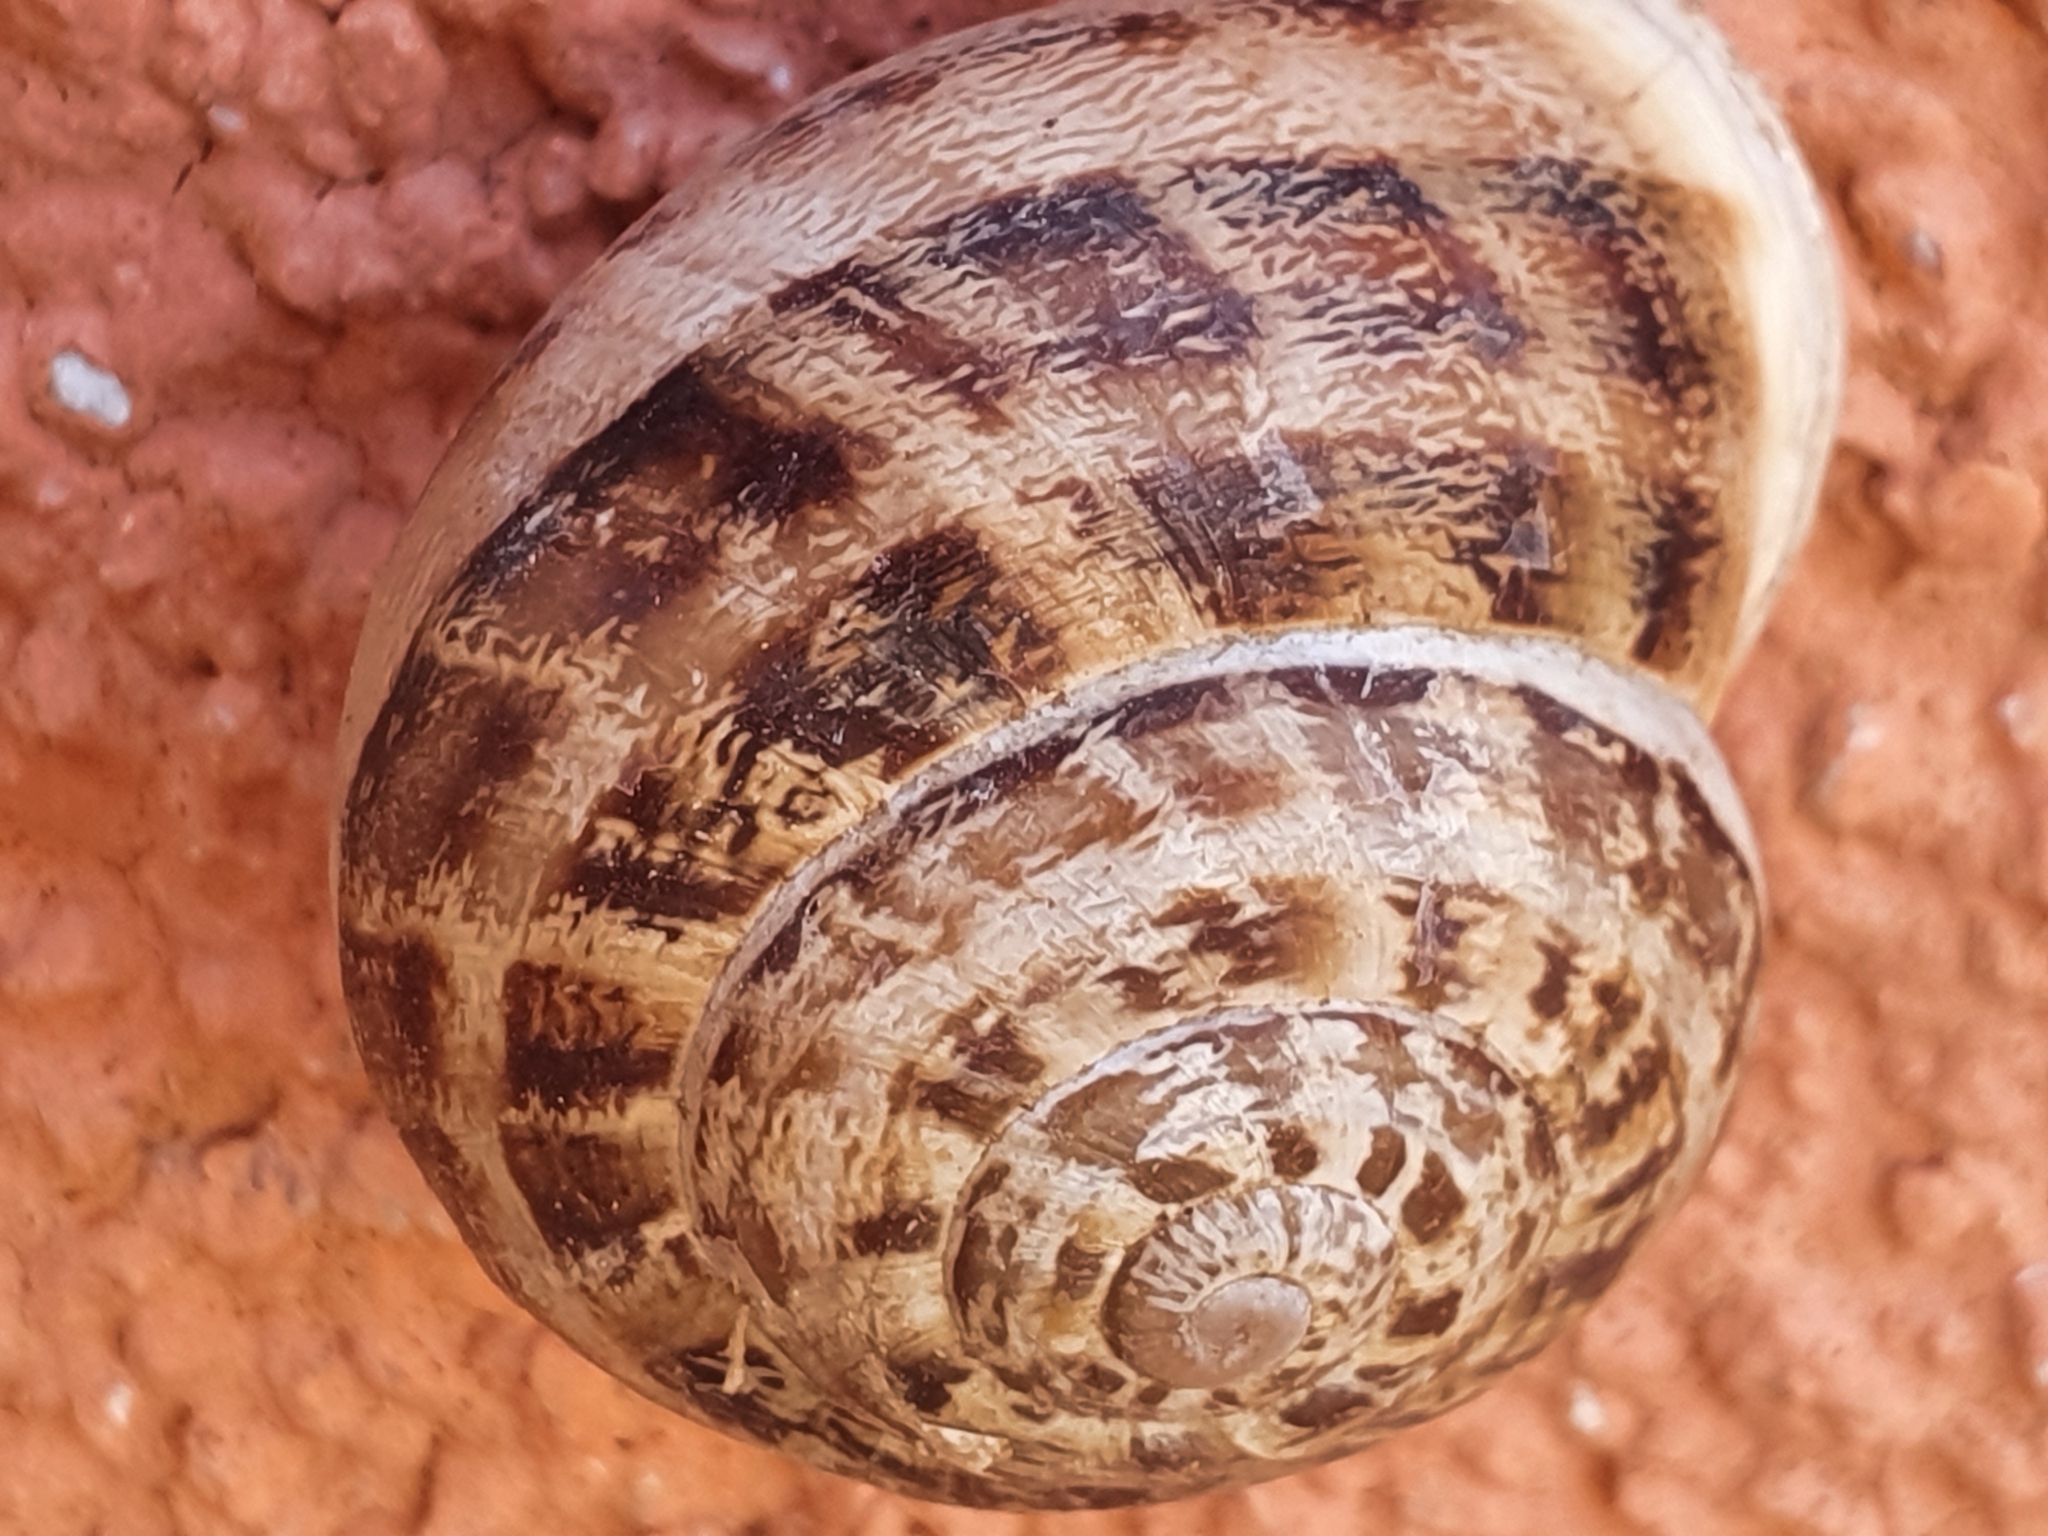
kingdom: Animalia
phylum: Mollusca
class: Gastropoda
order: Stylommatophora
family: Helicidae
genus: Eobania
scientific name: Eobania vermiculata
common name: Chocolateband snail
